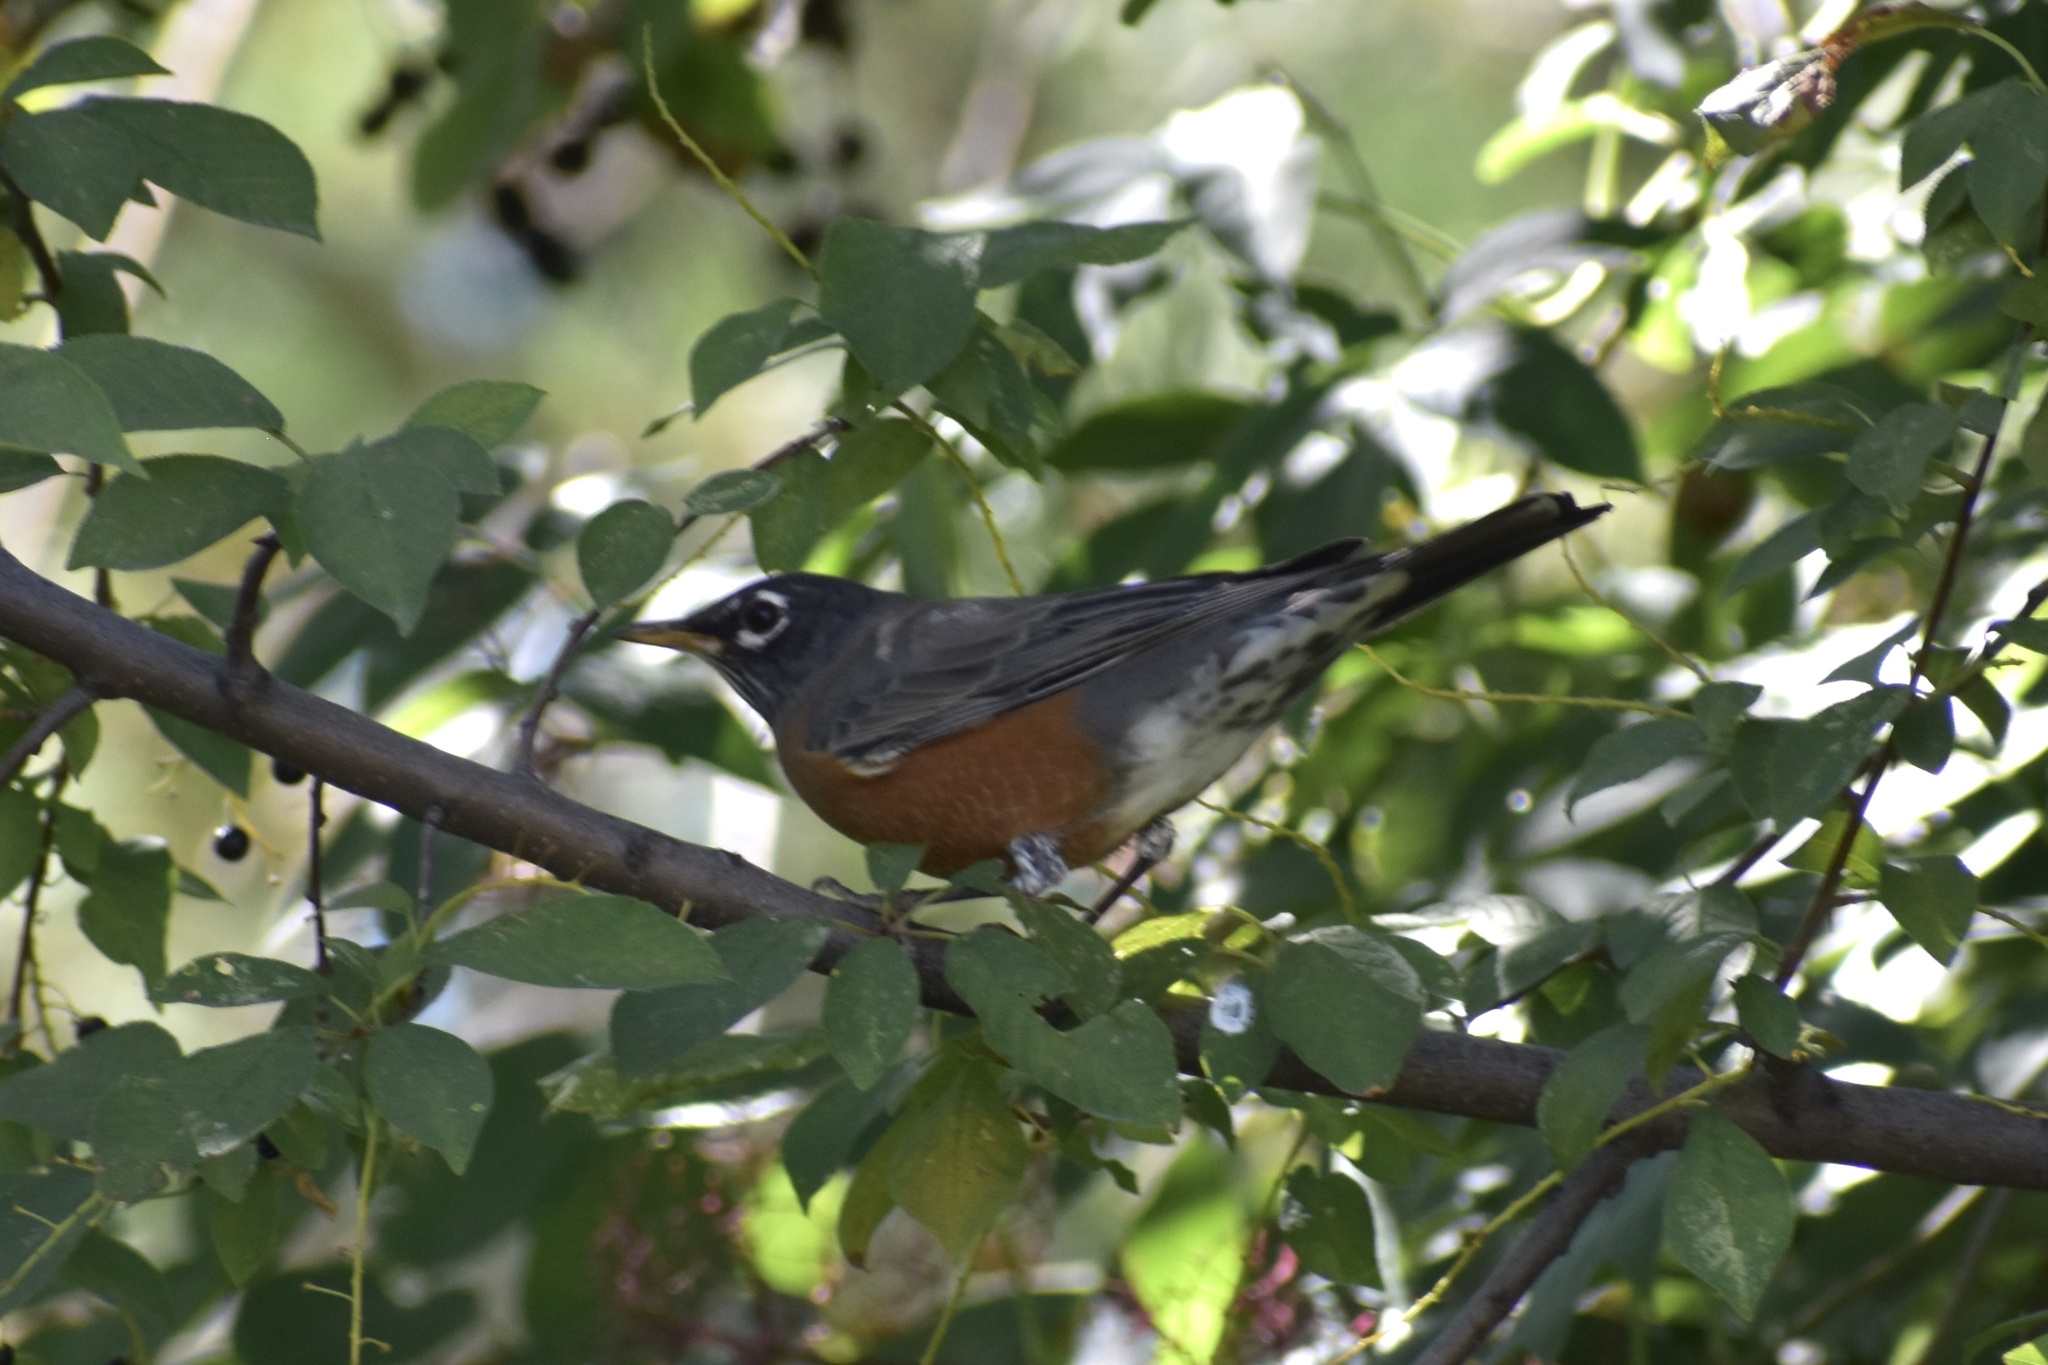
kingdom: Animalia
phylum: Chordata
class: Aves
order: Passeriformes
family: Turdidae
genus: Turdus
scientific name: Turdus migratorius
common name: American robin
